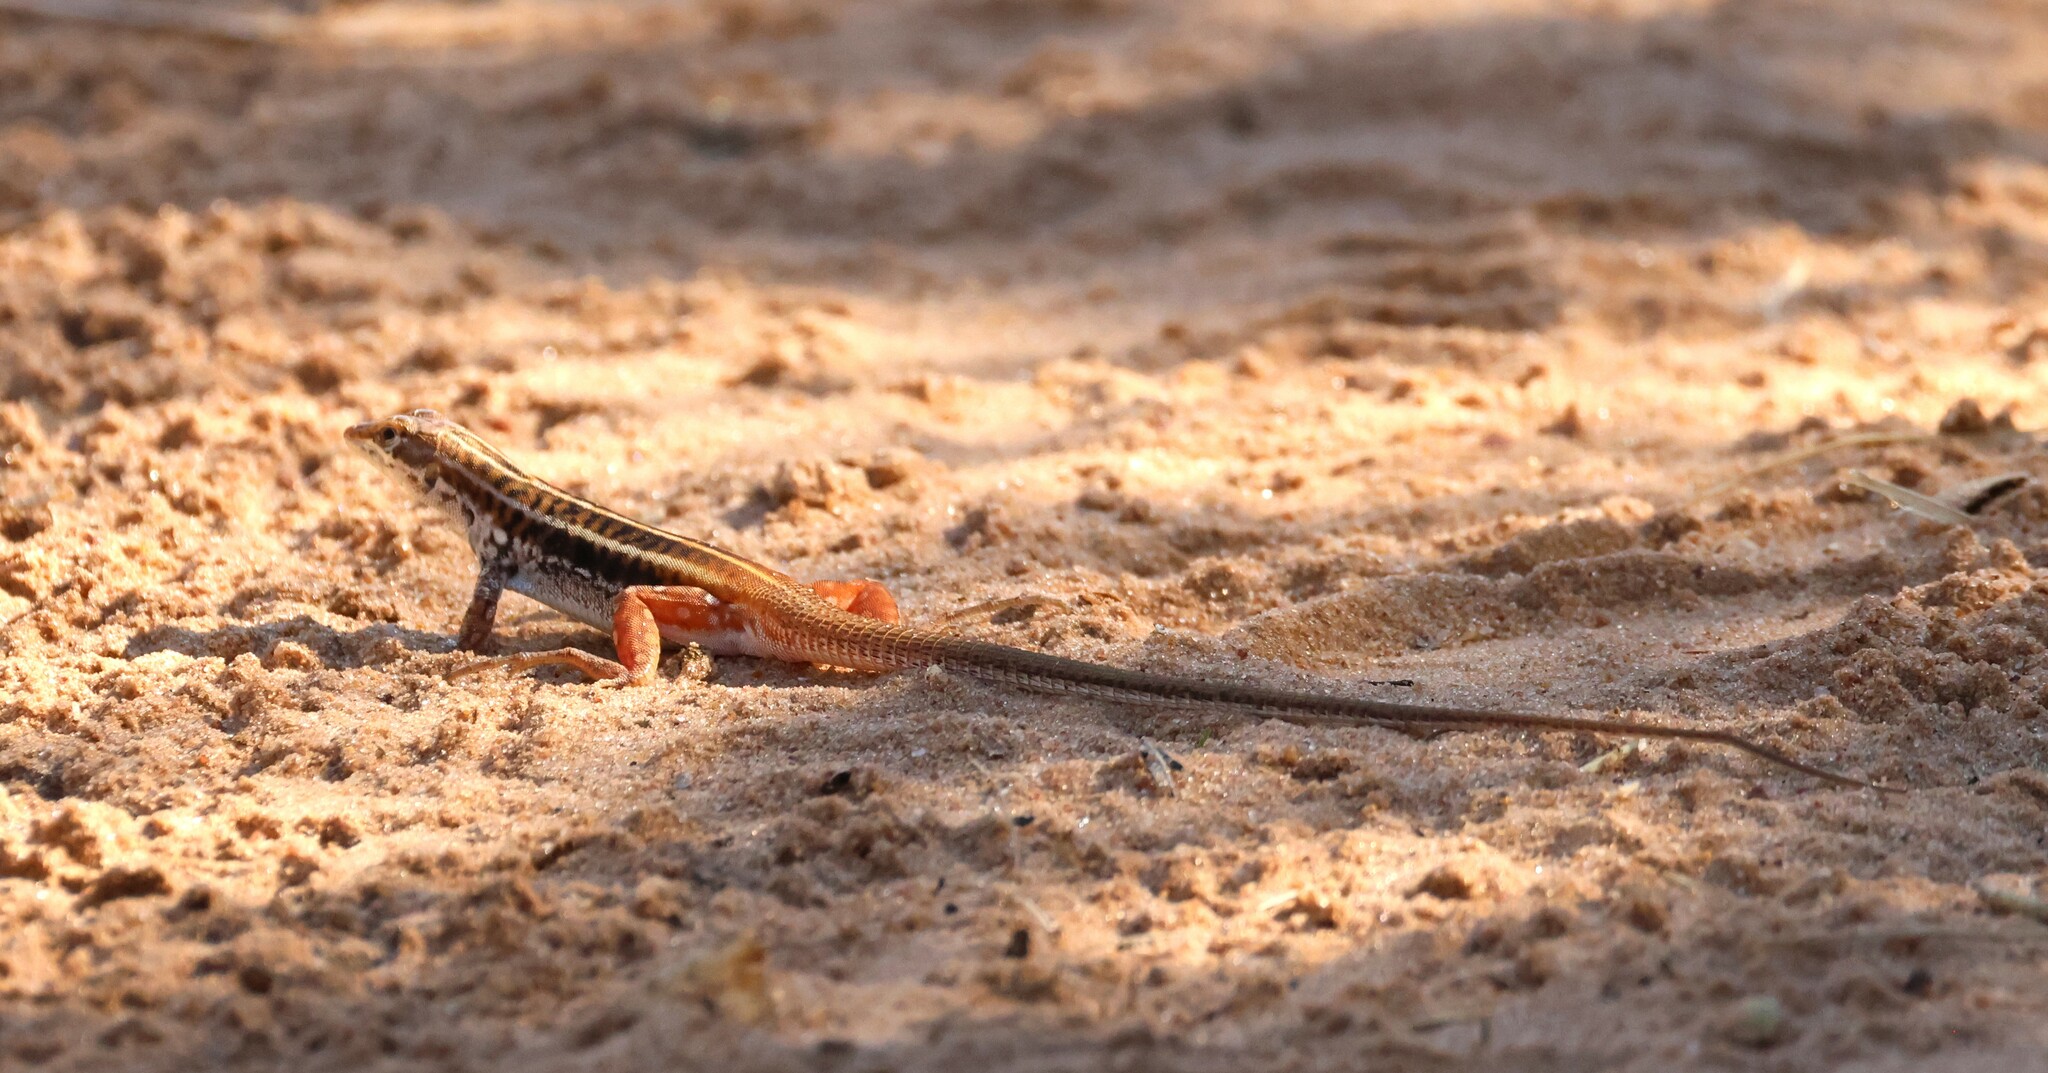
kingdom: Animalia
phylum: Chordata
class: Squamata
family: Lacertidae
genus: Heliobolus
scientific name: Heliobolus lugubris
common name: Bushveld lizard
